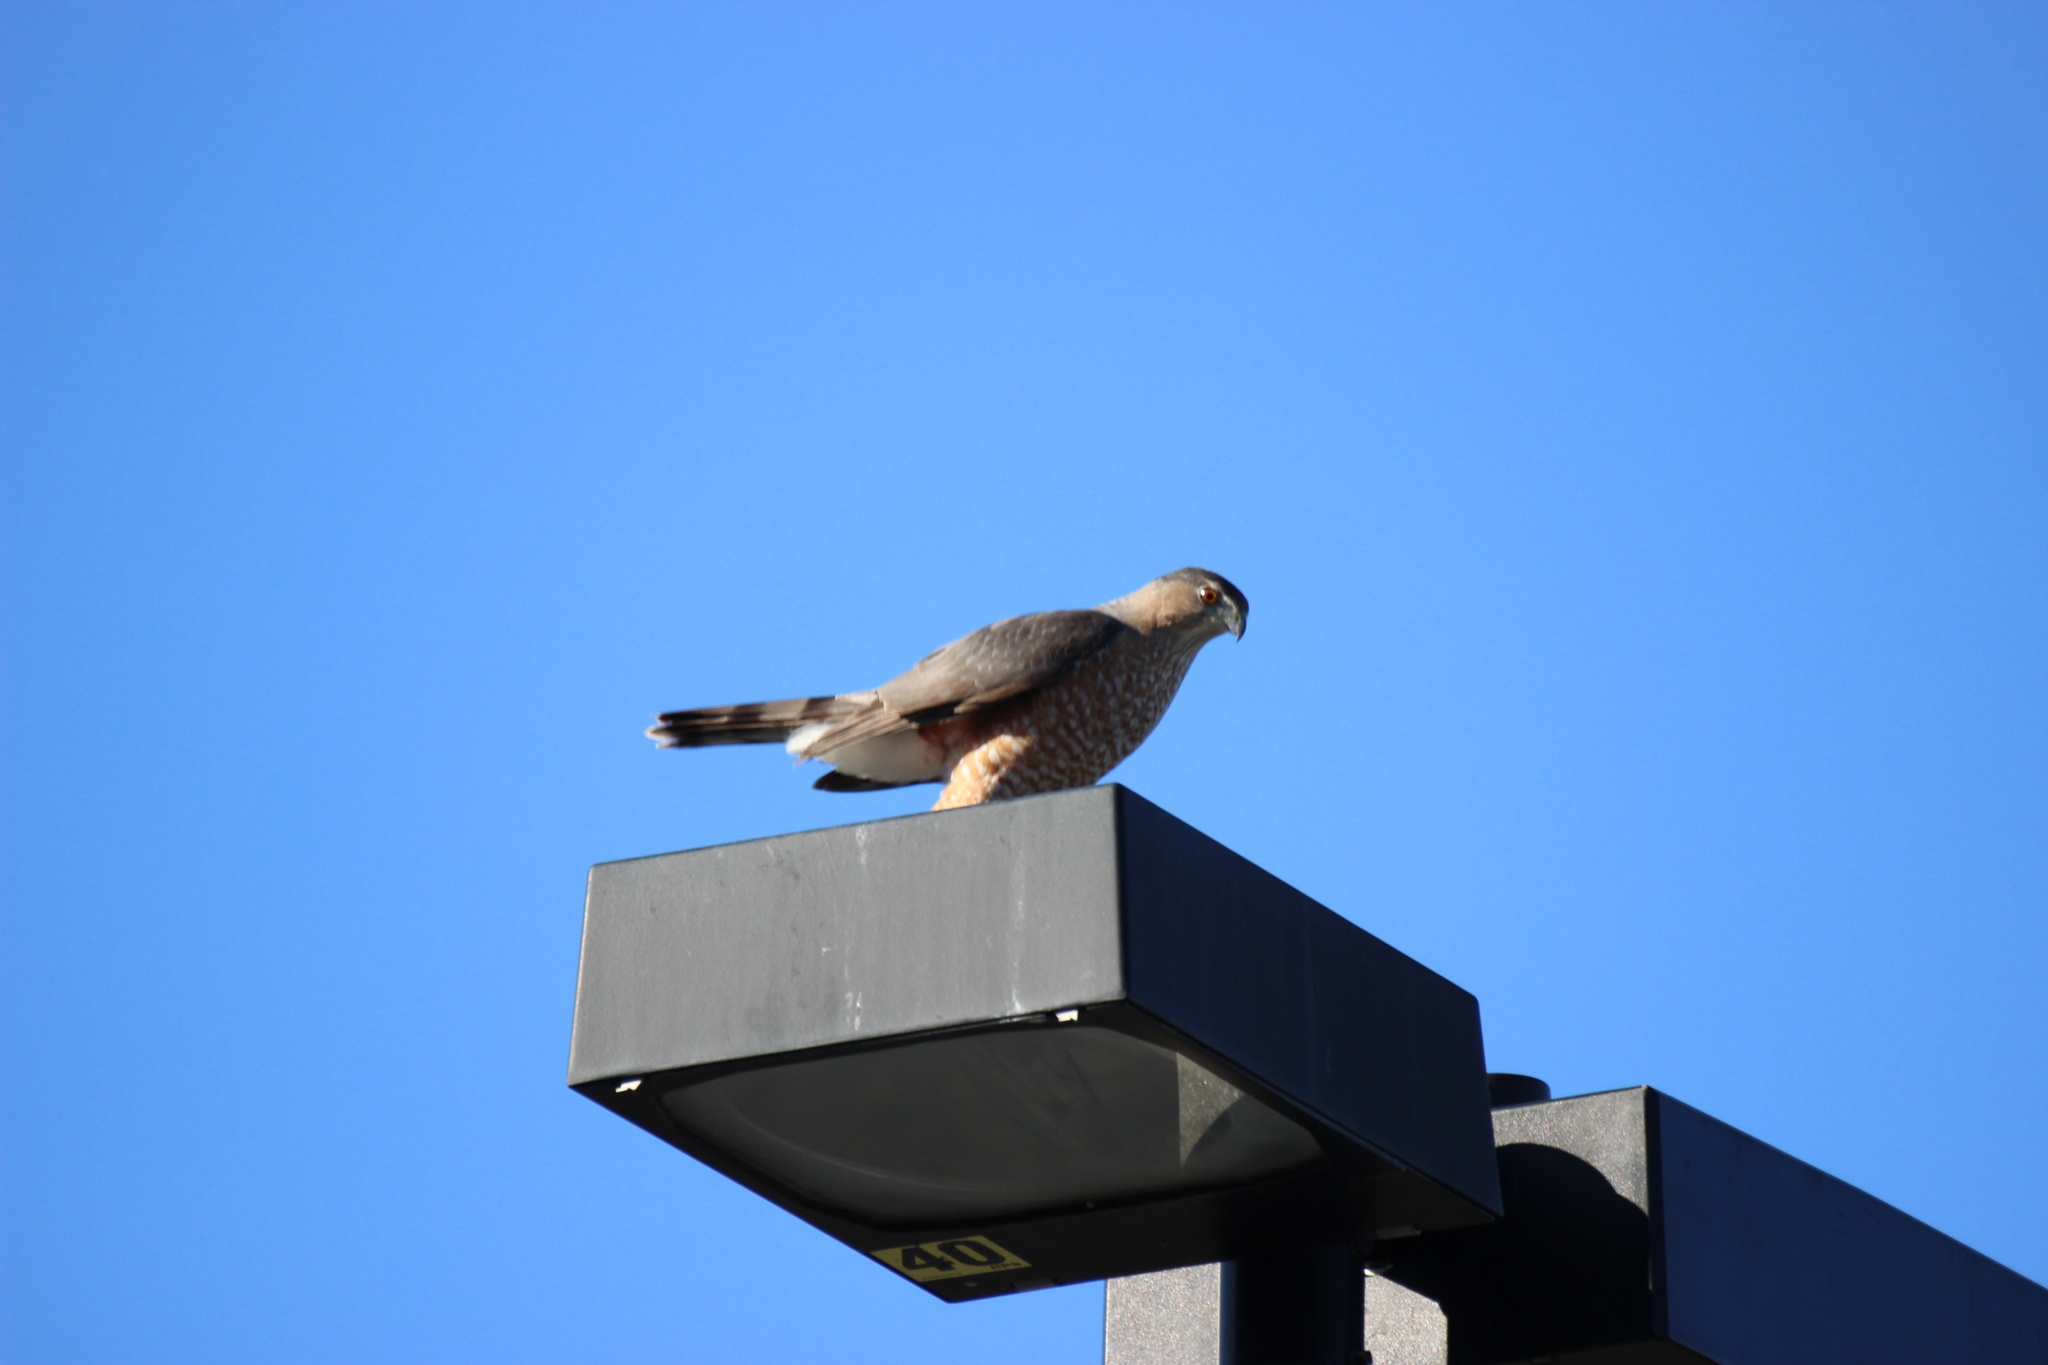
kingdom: Animalia
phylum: Chordata
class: Aves
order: Accipitriformes
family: Accipitridae
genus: Accipiter
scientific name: Accipiter cooperii
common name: Cooper's hawk
